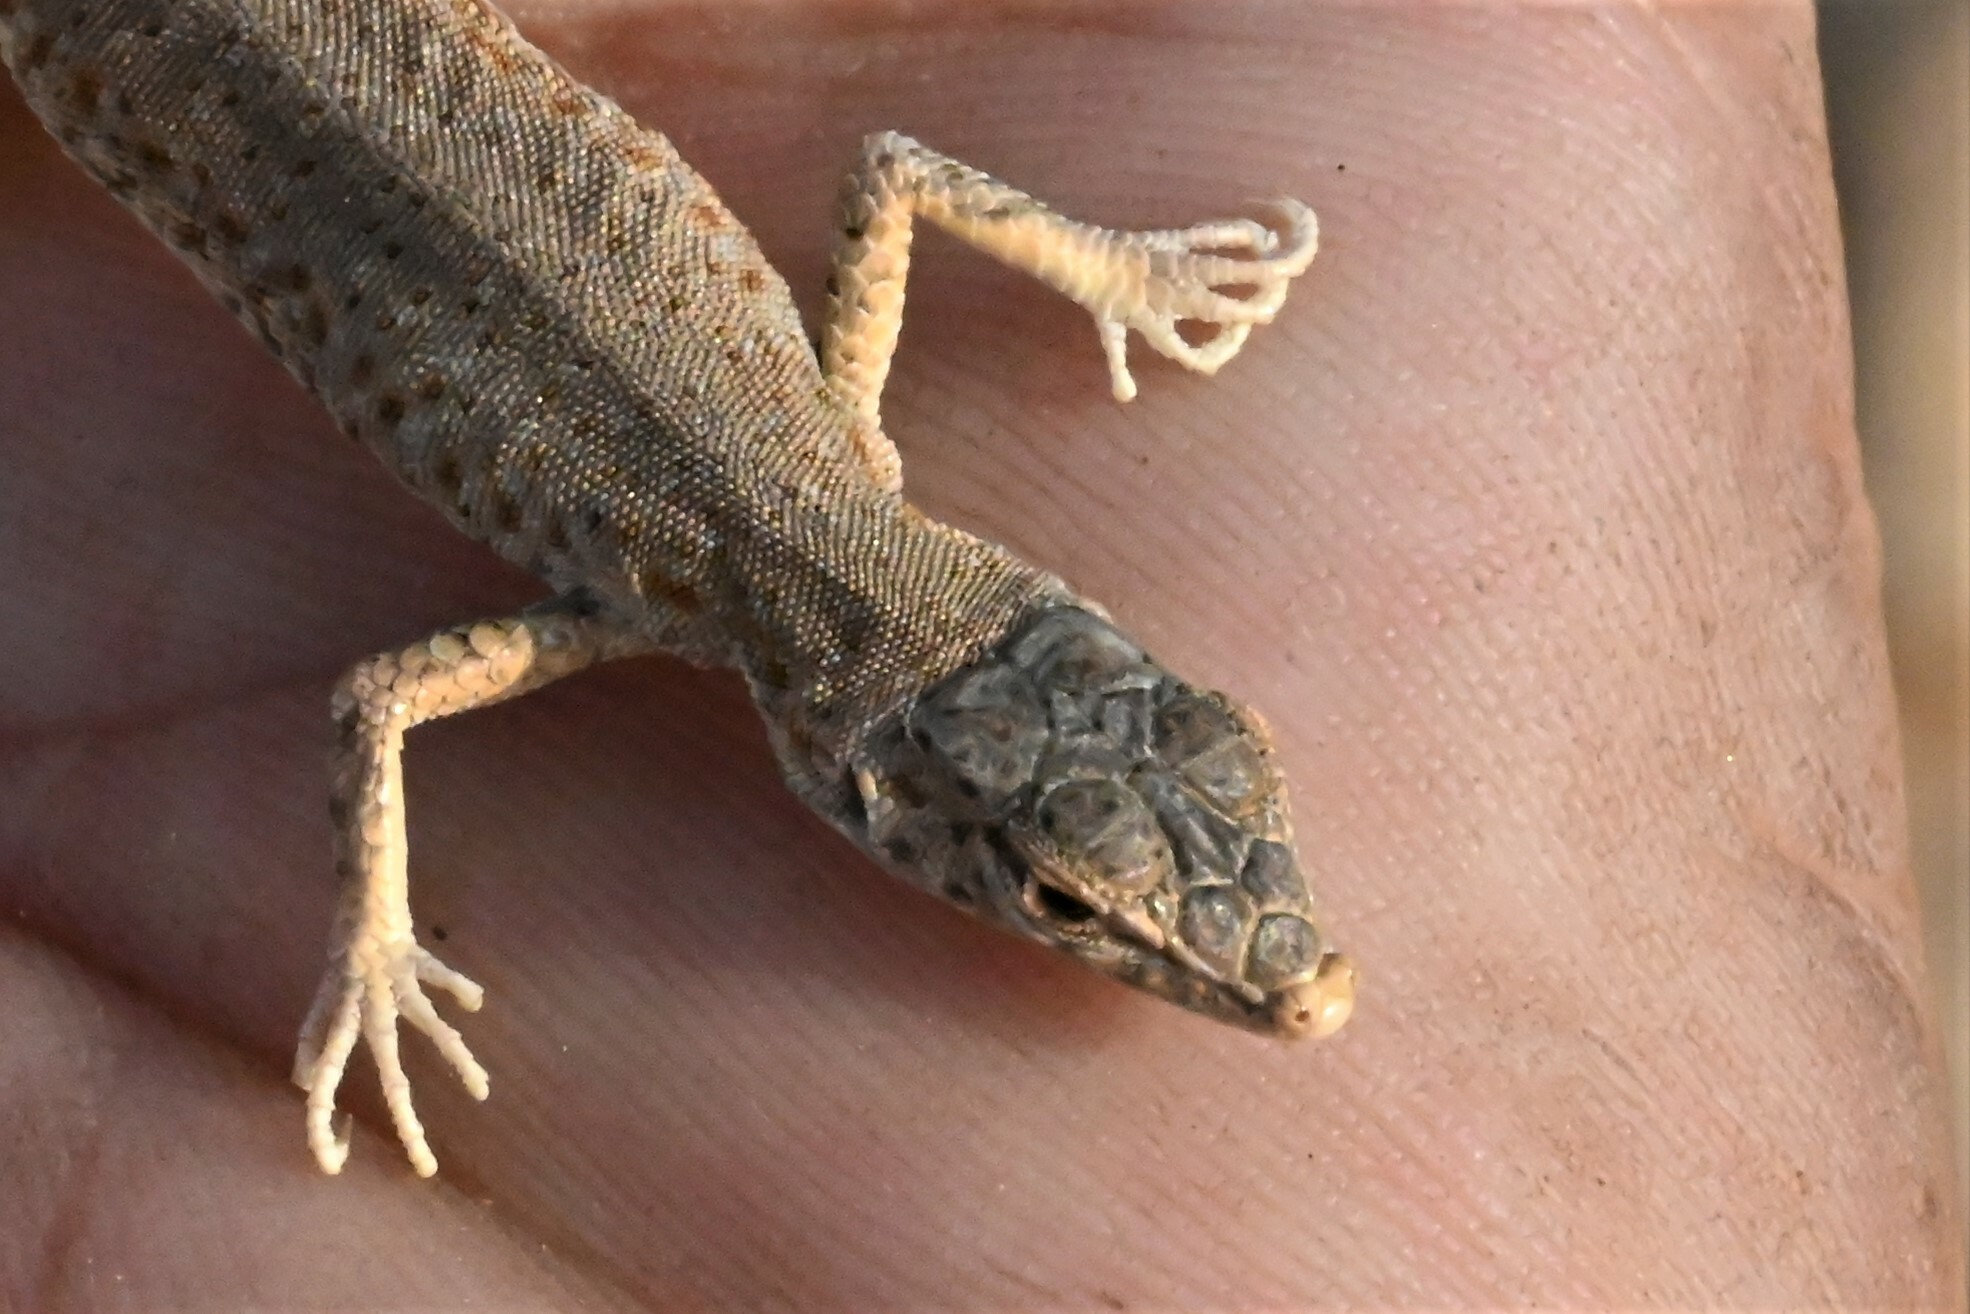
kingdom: Animalia
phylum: Chordata
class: Squamata
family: Lacertidae
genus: Mesalina
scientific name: Mesalina brevirostris
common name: Blanford's short-nosed desert lizard
